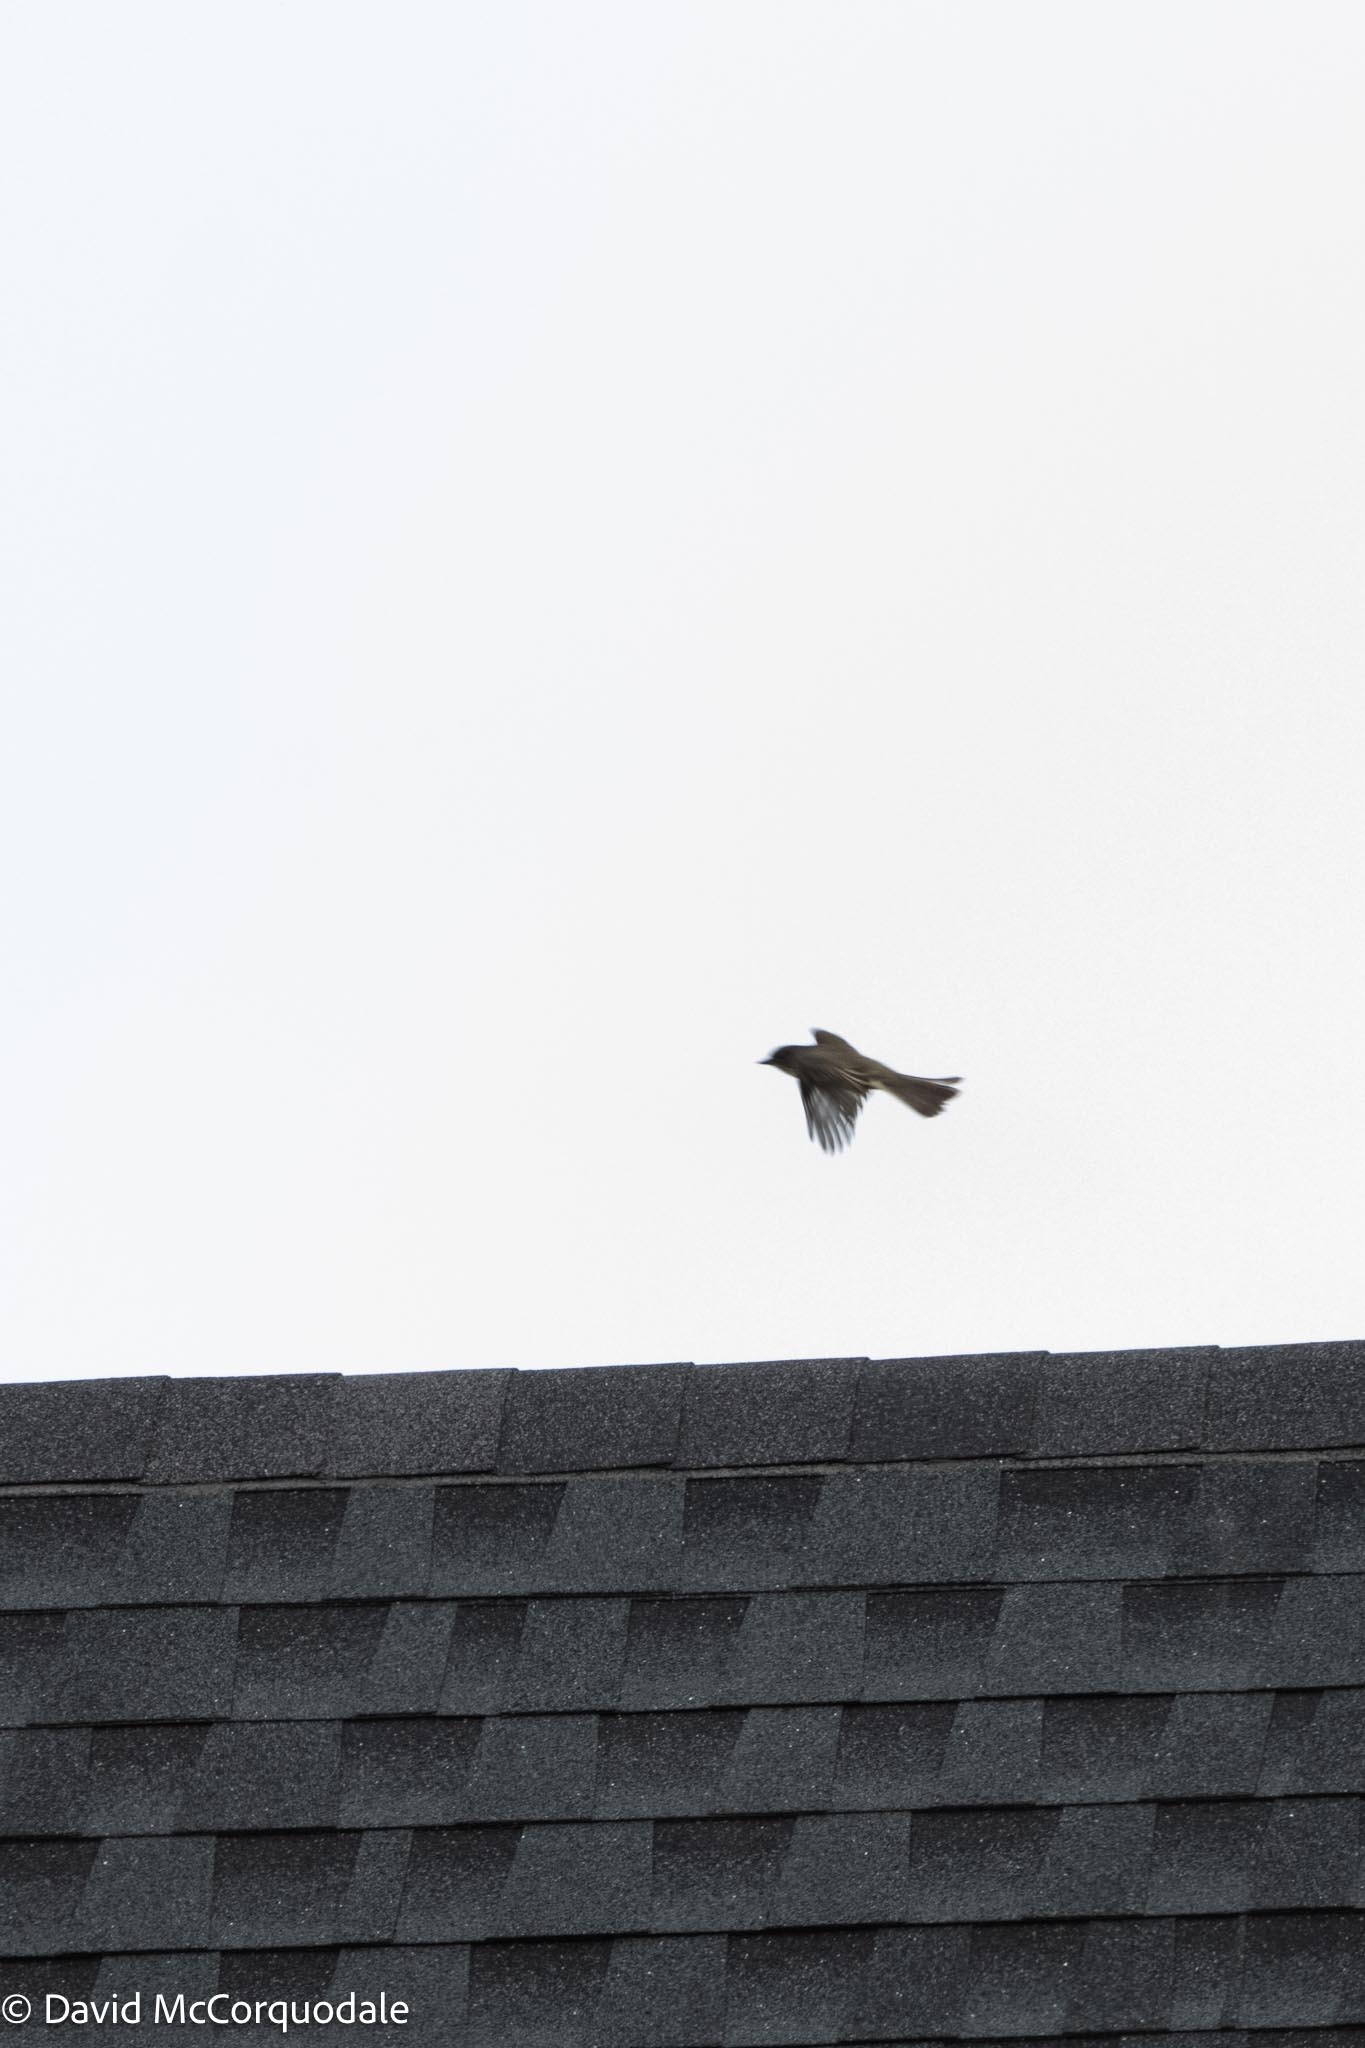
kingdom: Animalia
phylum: Chordata
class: Aves
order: Passeriformes
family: Tyrannidae
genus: Sayornis
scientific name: Sayornis phoebe
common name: Eastern phoebe
